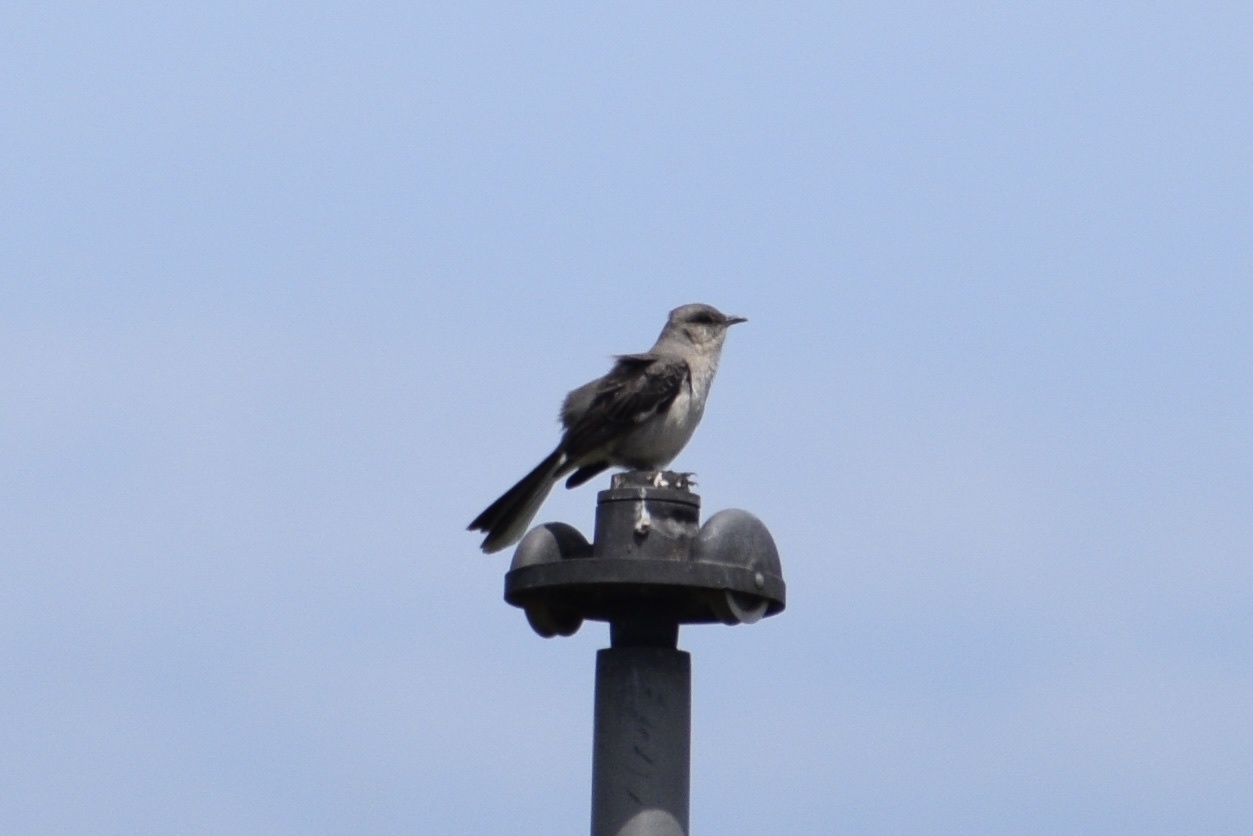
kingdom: Animalia
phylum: Chordata
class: Aves
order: Passeriformes
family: Mimidae
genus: Mimus
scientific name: Mimus polyglottos
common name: Northern mockingbird
